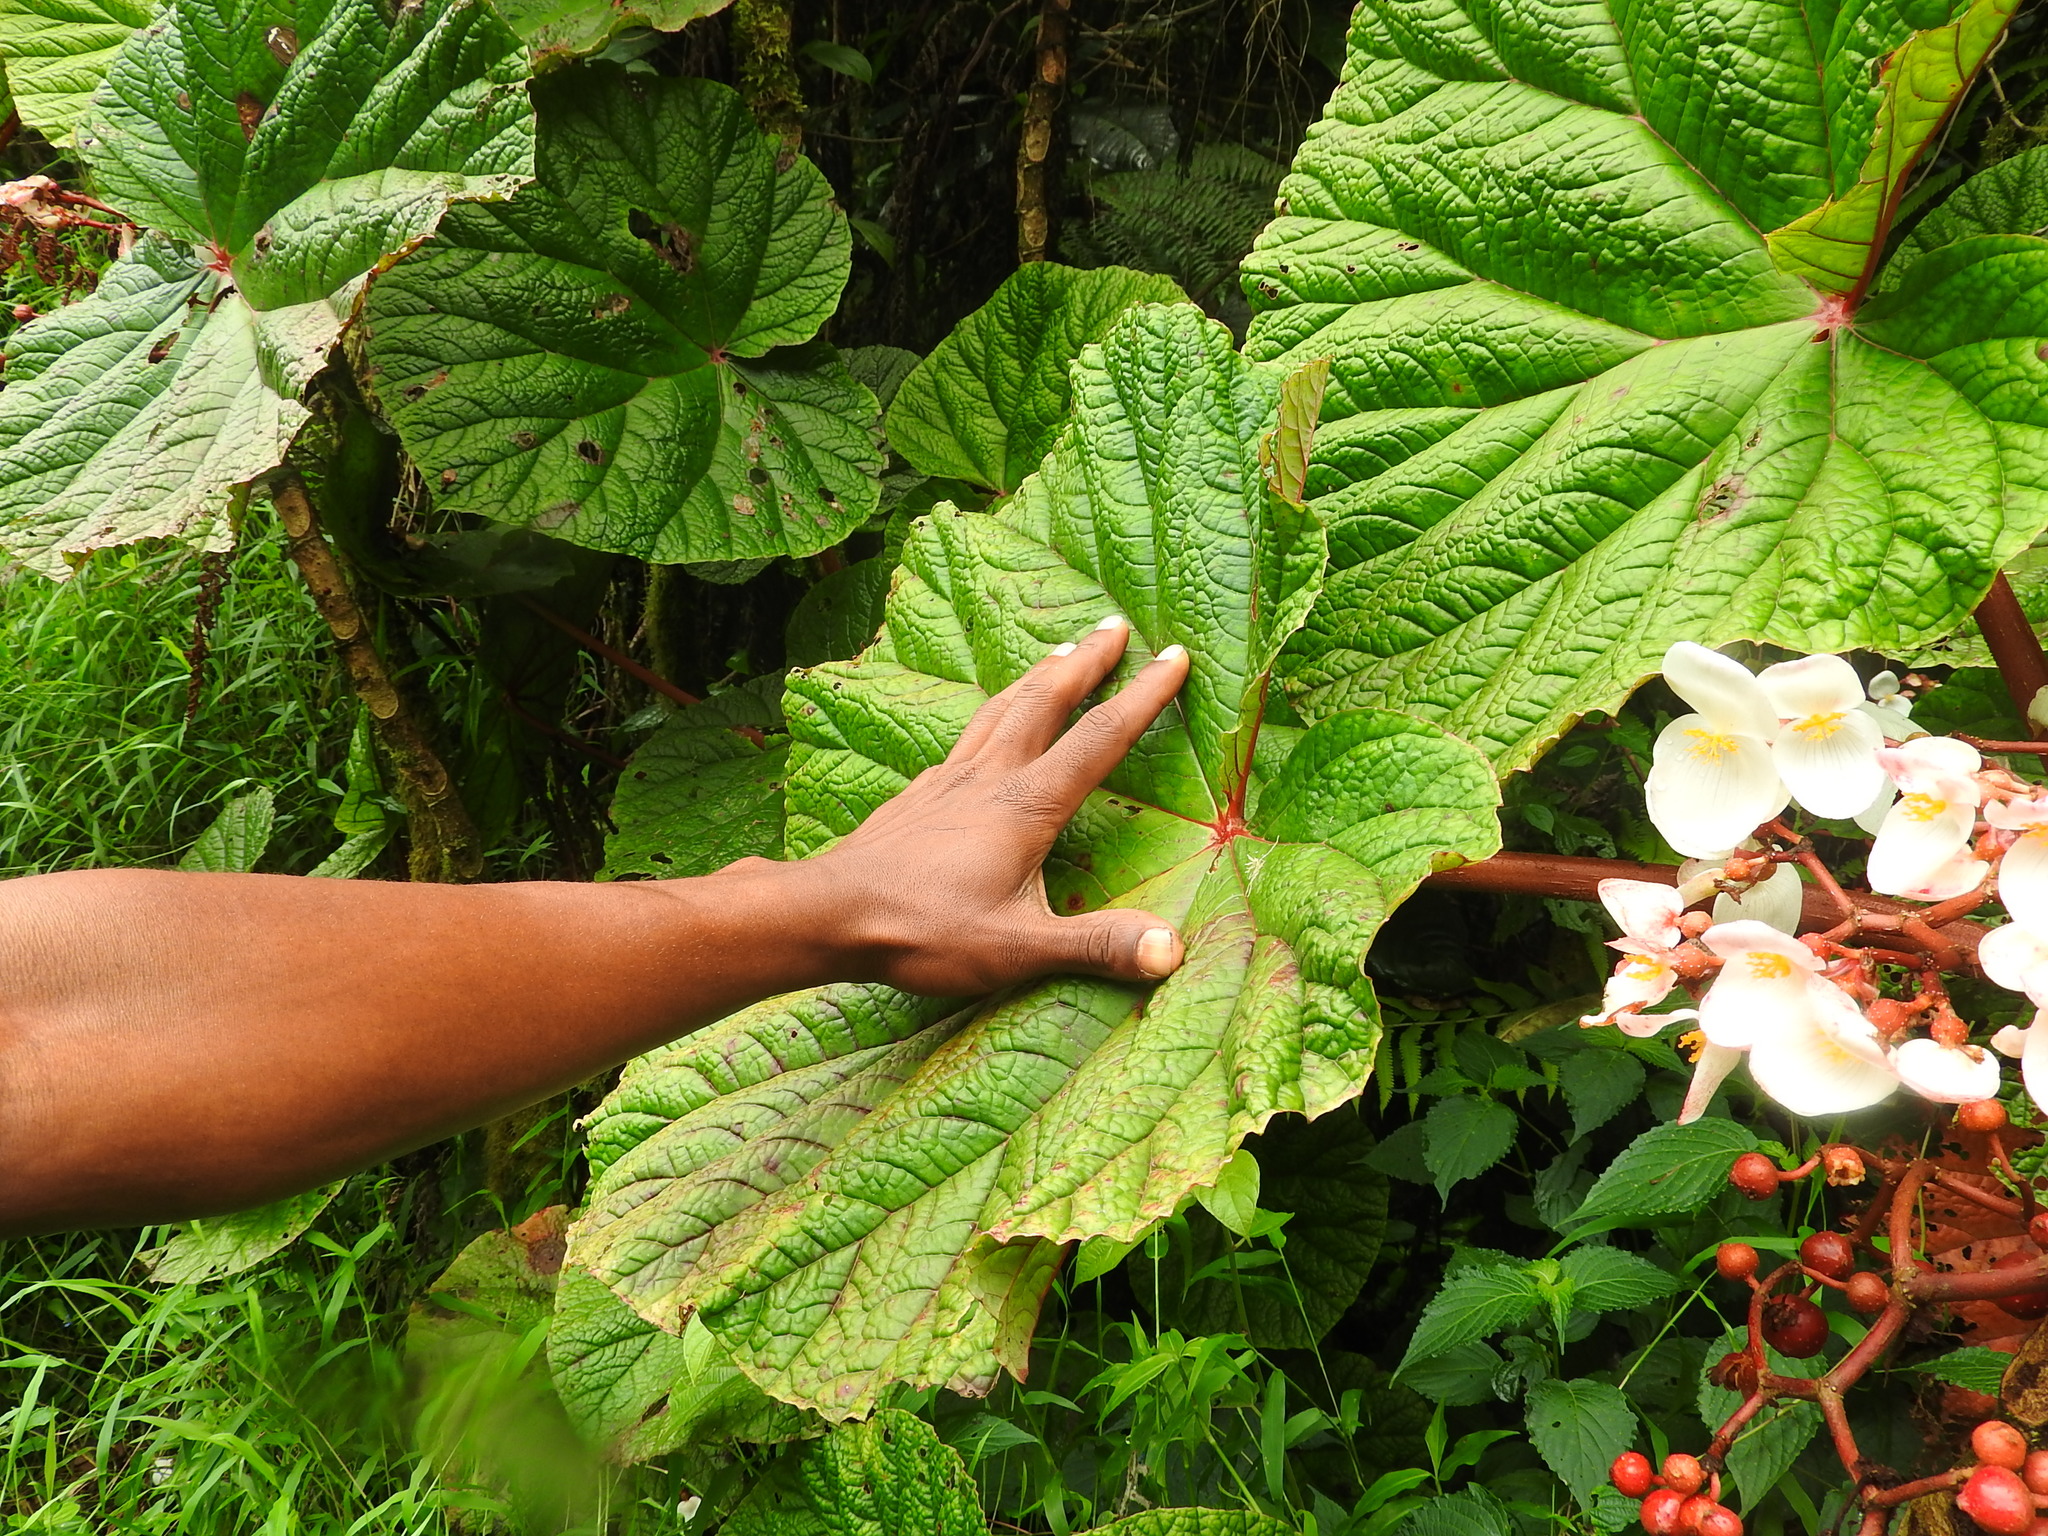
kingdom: Plantae
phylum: Tracheophyta
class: Magnoliopsida
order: Cucurbitales
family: Begoniaceae
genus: Begonia
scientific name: Begonia baccata
